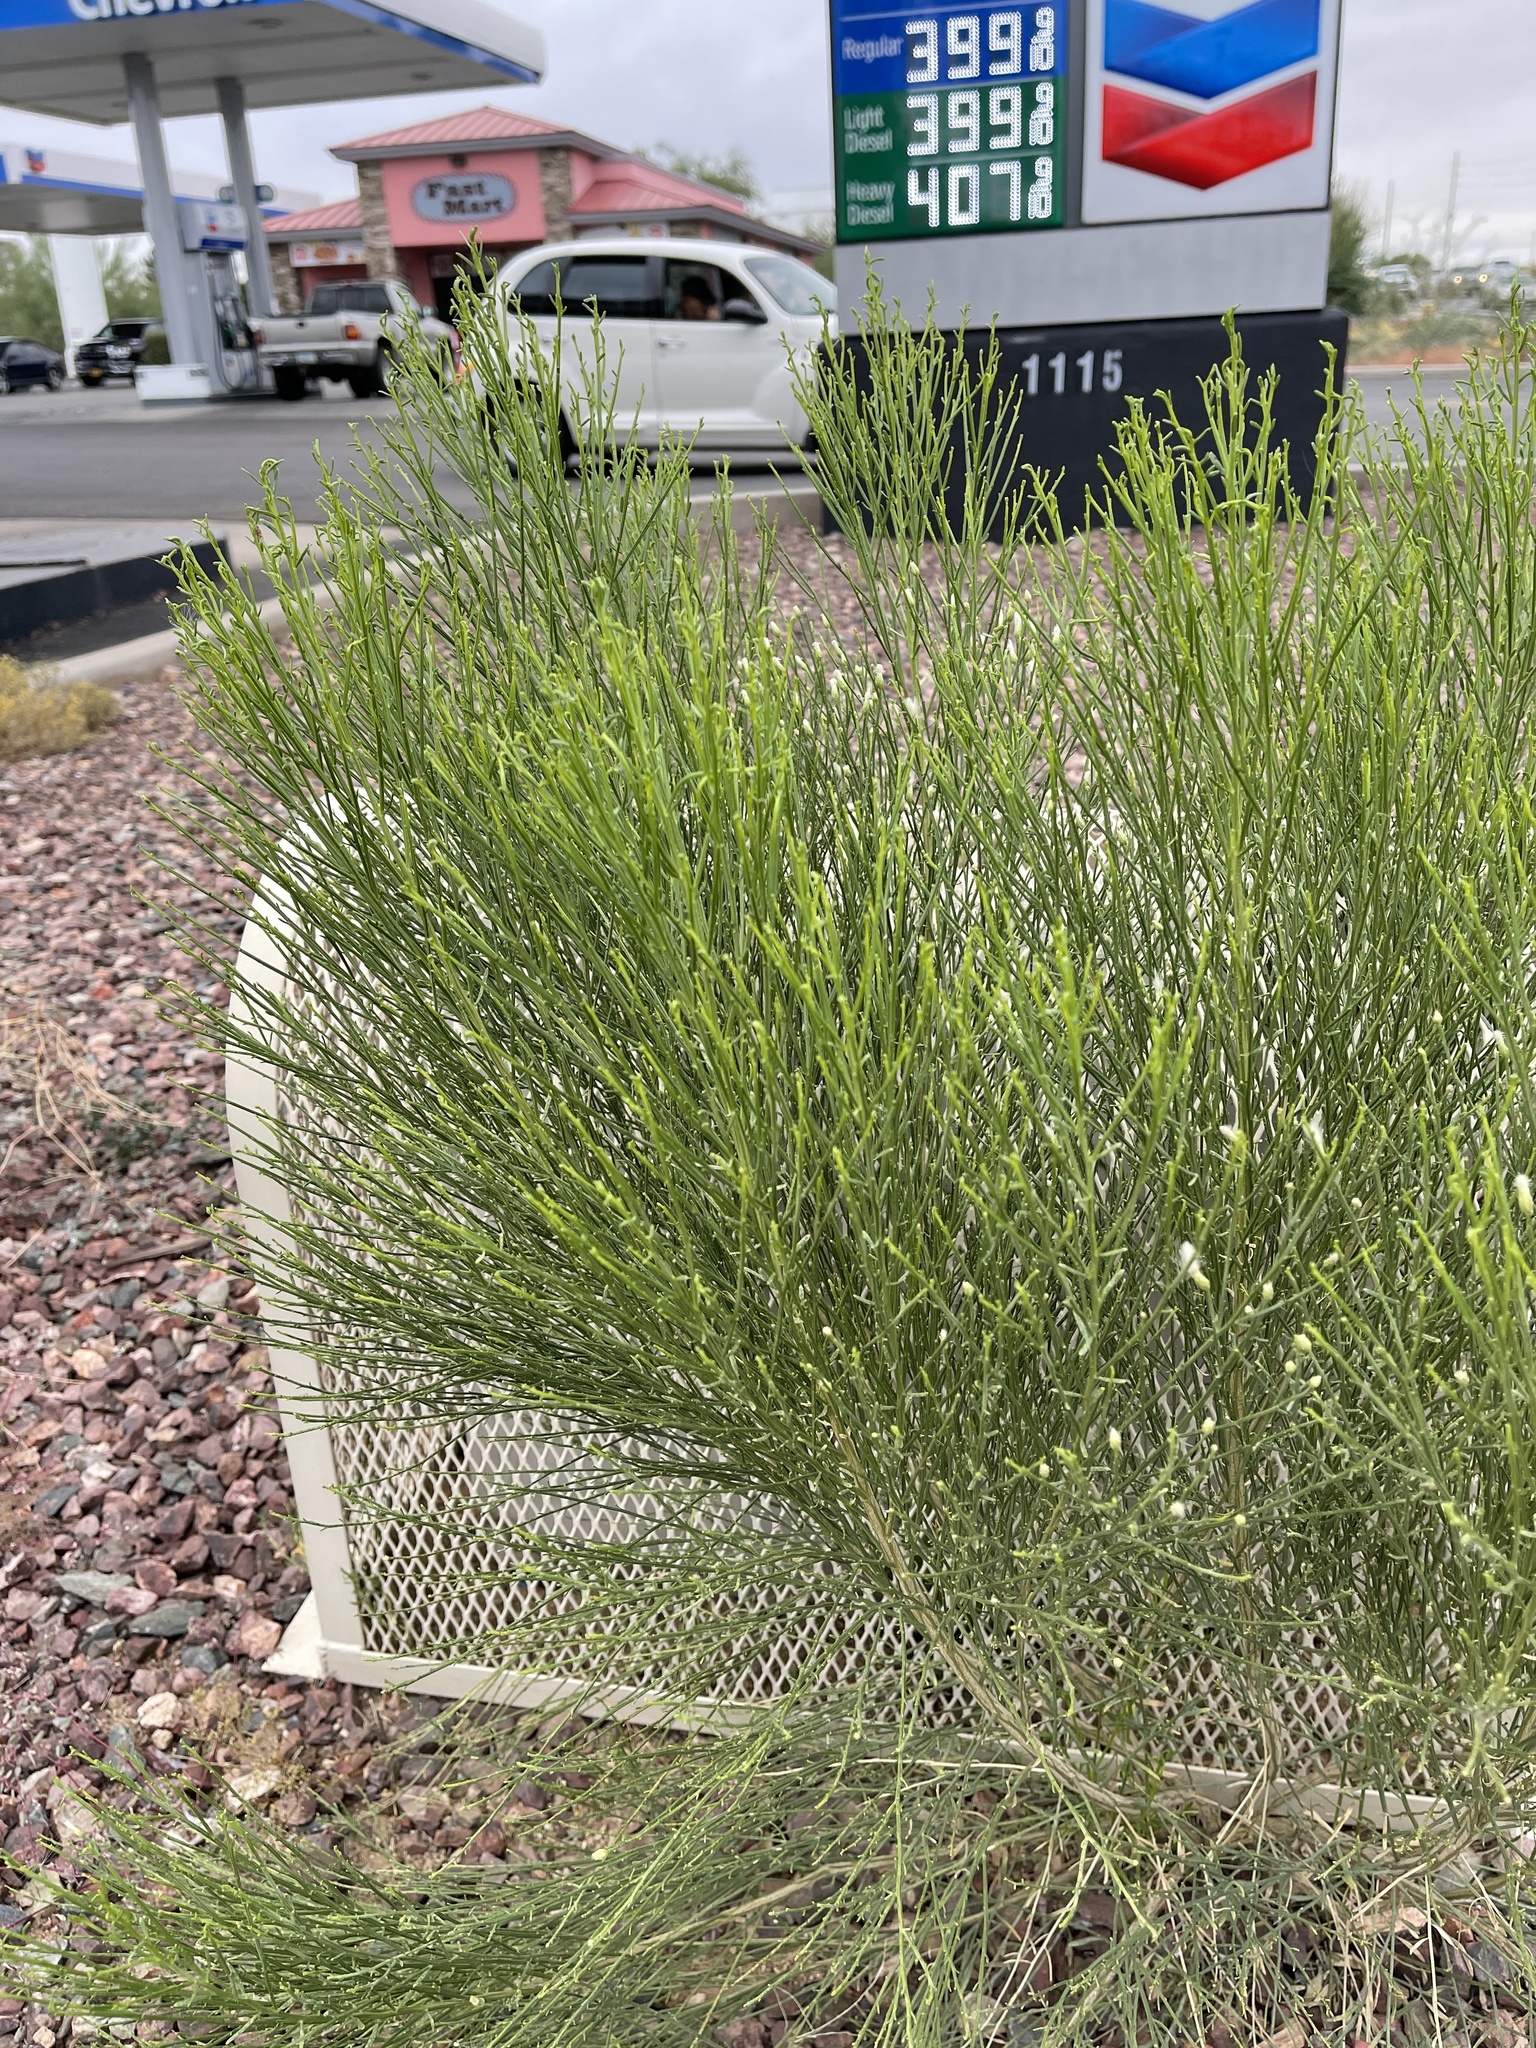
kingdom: Plantae
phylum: Tracheophyta
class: Magnoliopsida
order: Asterales
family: Asteraceae
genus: Baccharis
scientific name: Baccharis sarothroides
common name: Desert-broom
